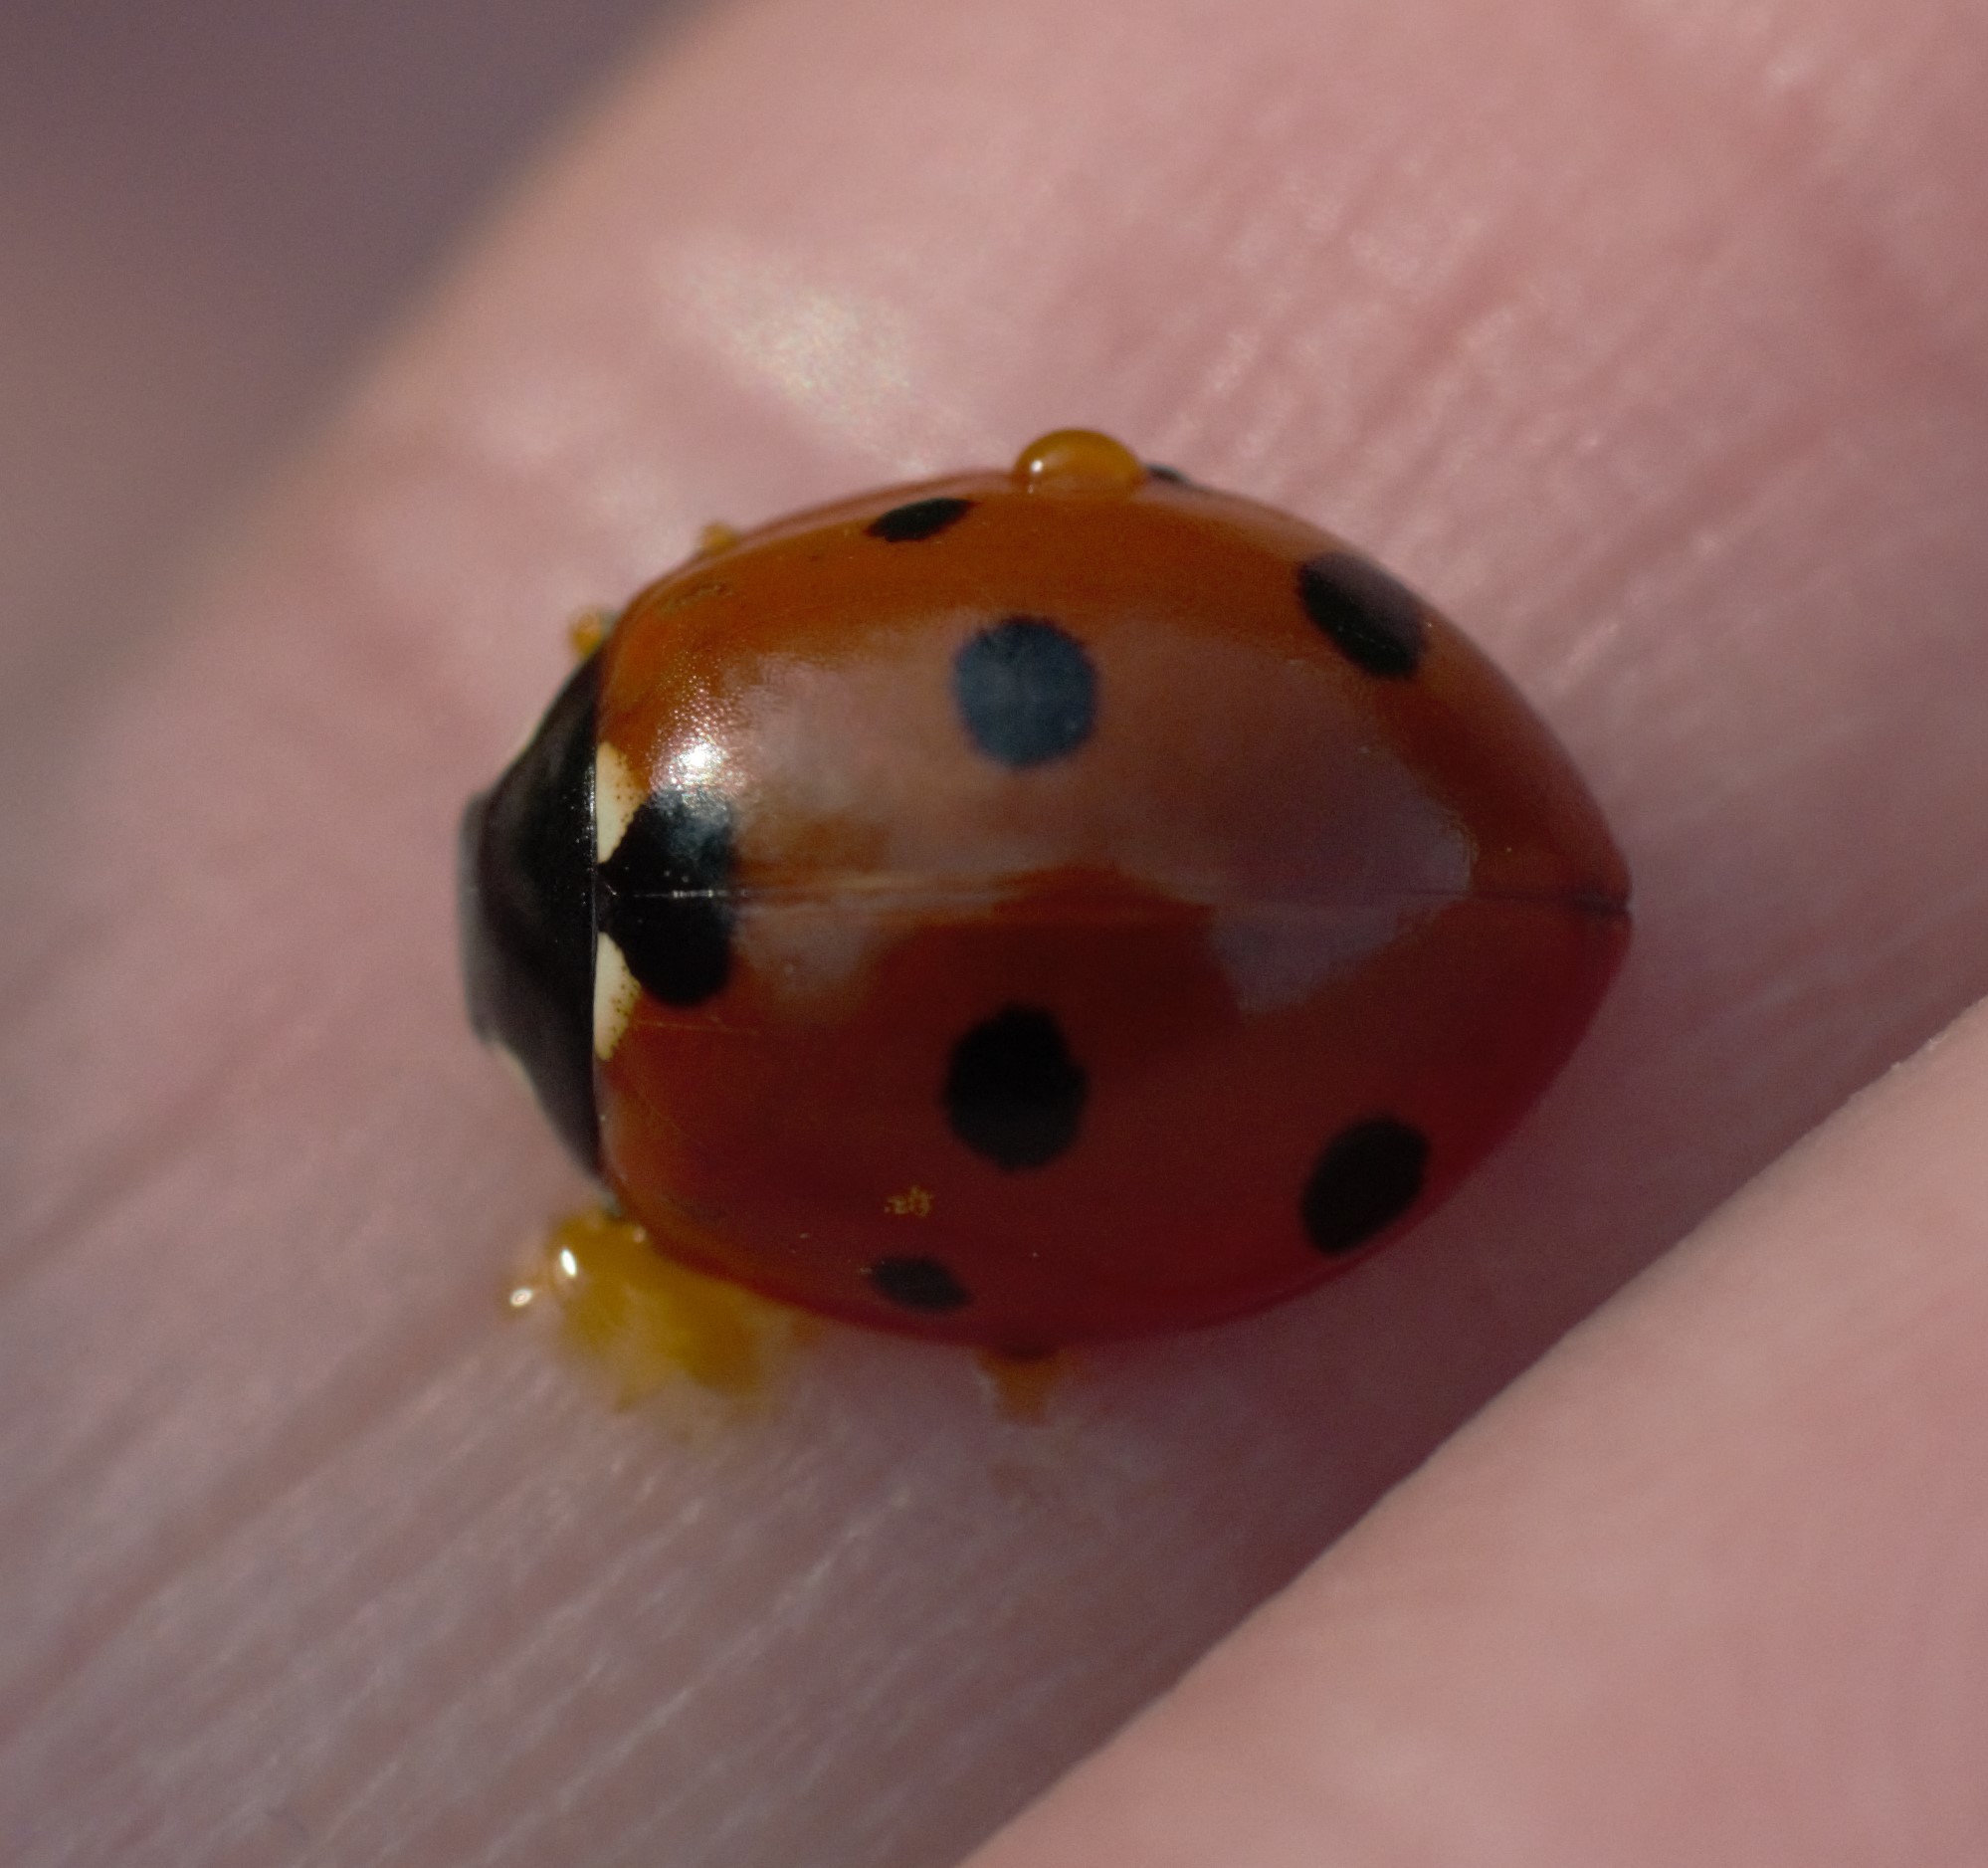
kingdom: Animalia
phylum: Arthropoda
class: Insecta
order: Coleoptera
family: Coccinellidae
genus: Coccinella
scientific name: Coccinella septempunctata
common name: Sevenspotted lady beetle
